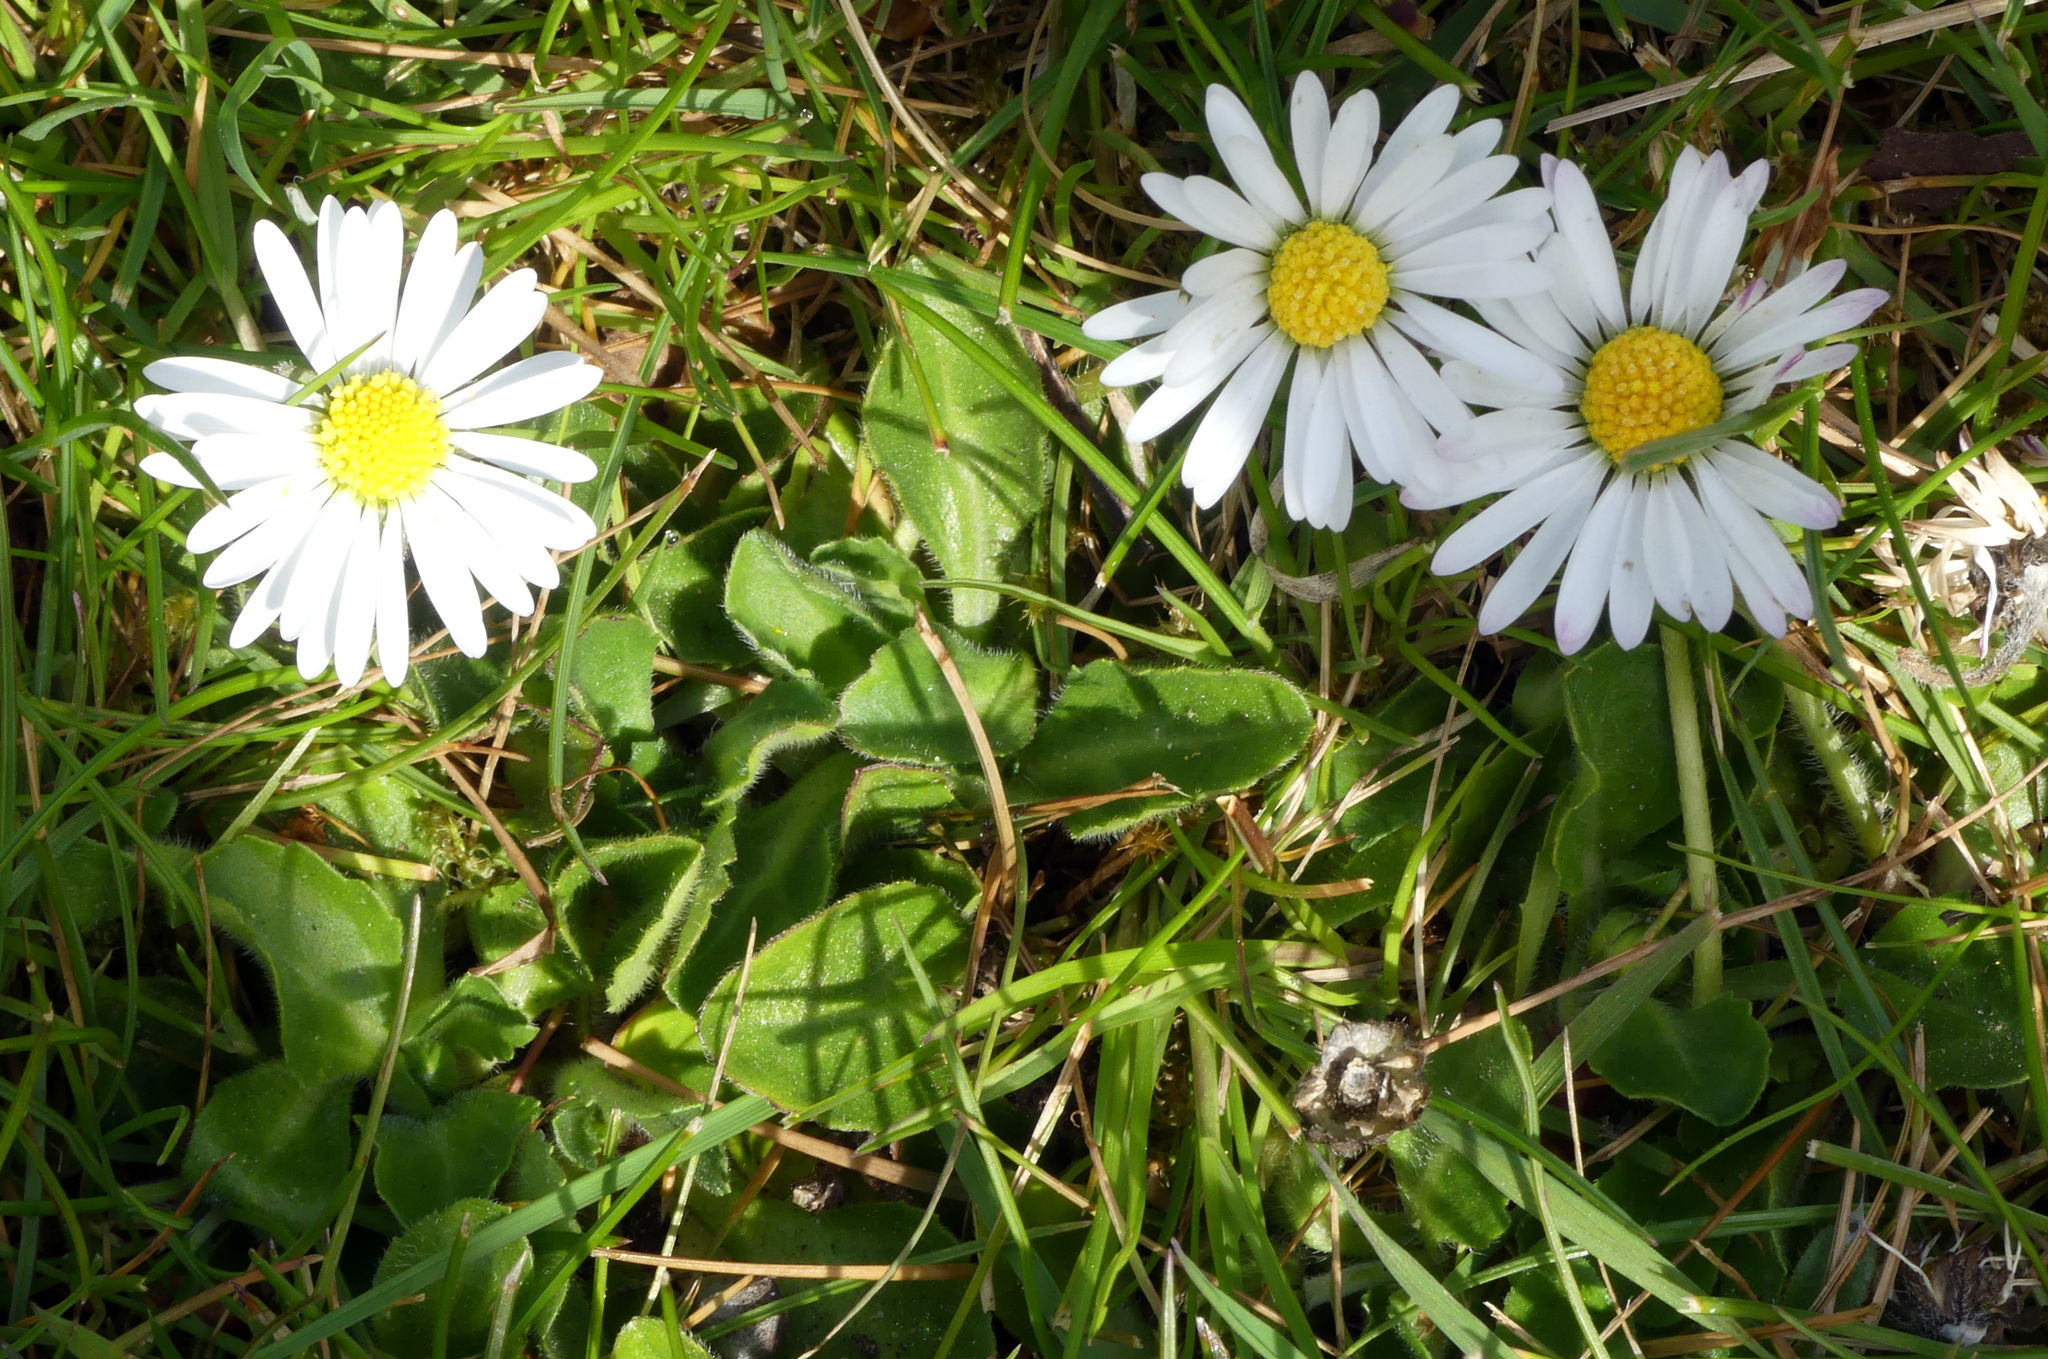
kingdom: Plantae
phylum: Tracheophyta
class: Magnoliopsida
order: Asterales
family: Asteraceae
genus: Bellis
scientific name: Bellis perennis
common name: Lawndaisy
